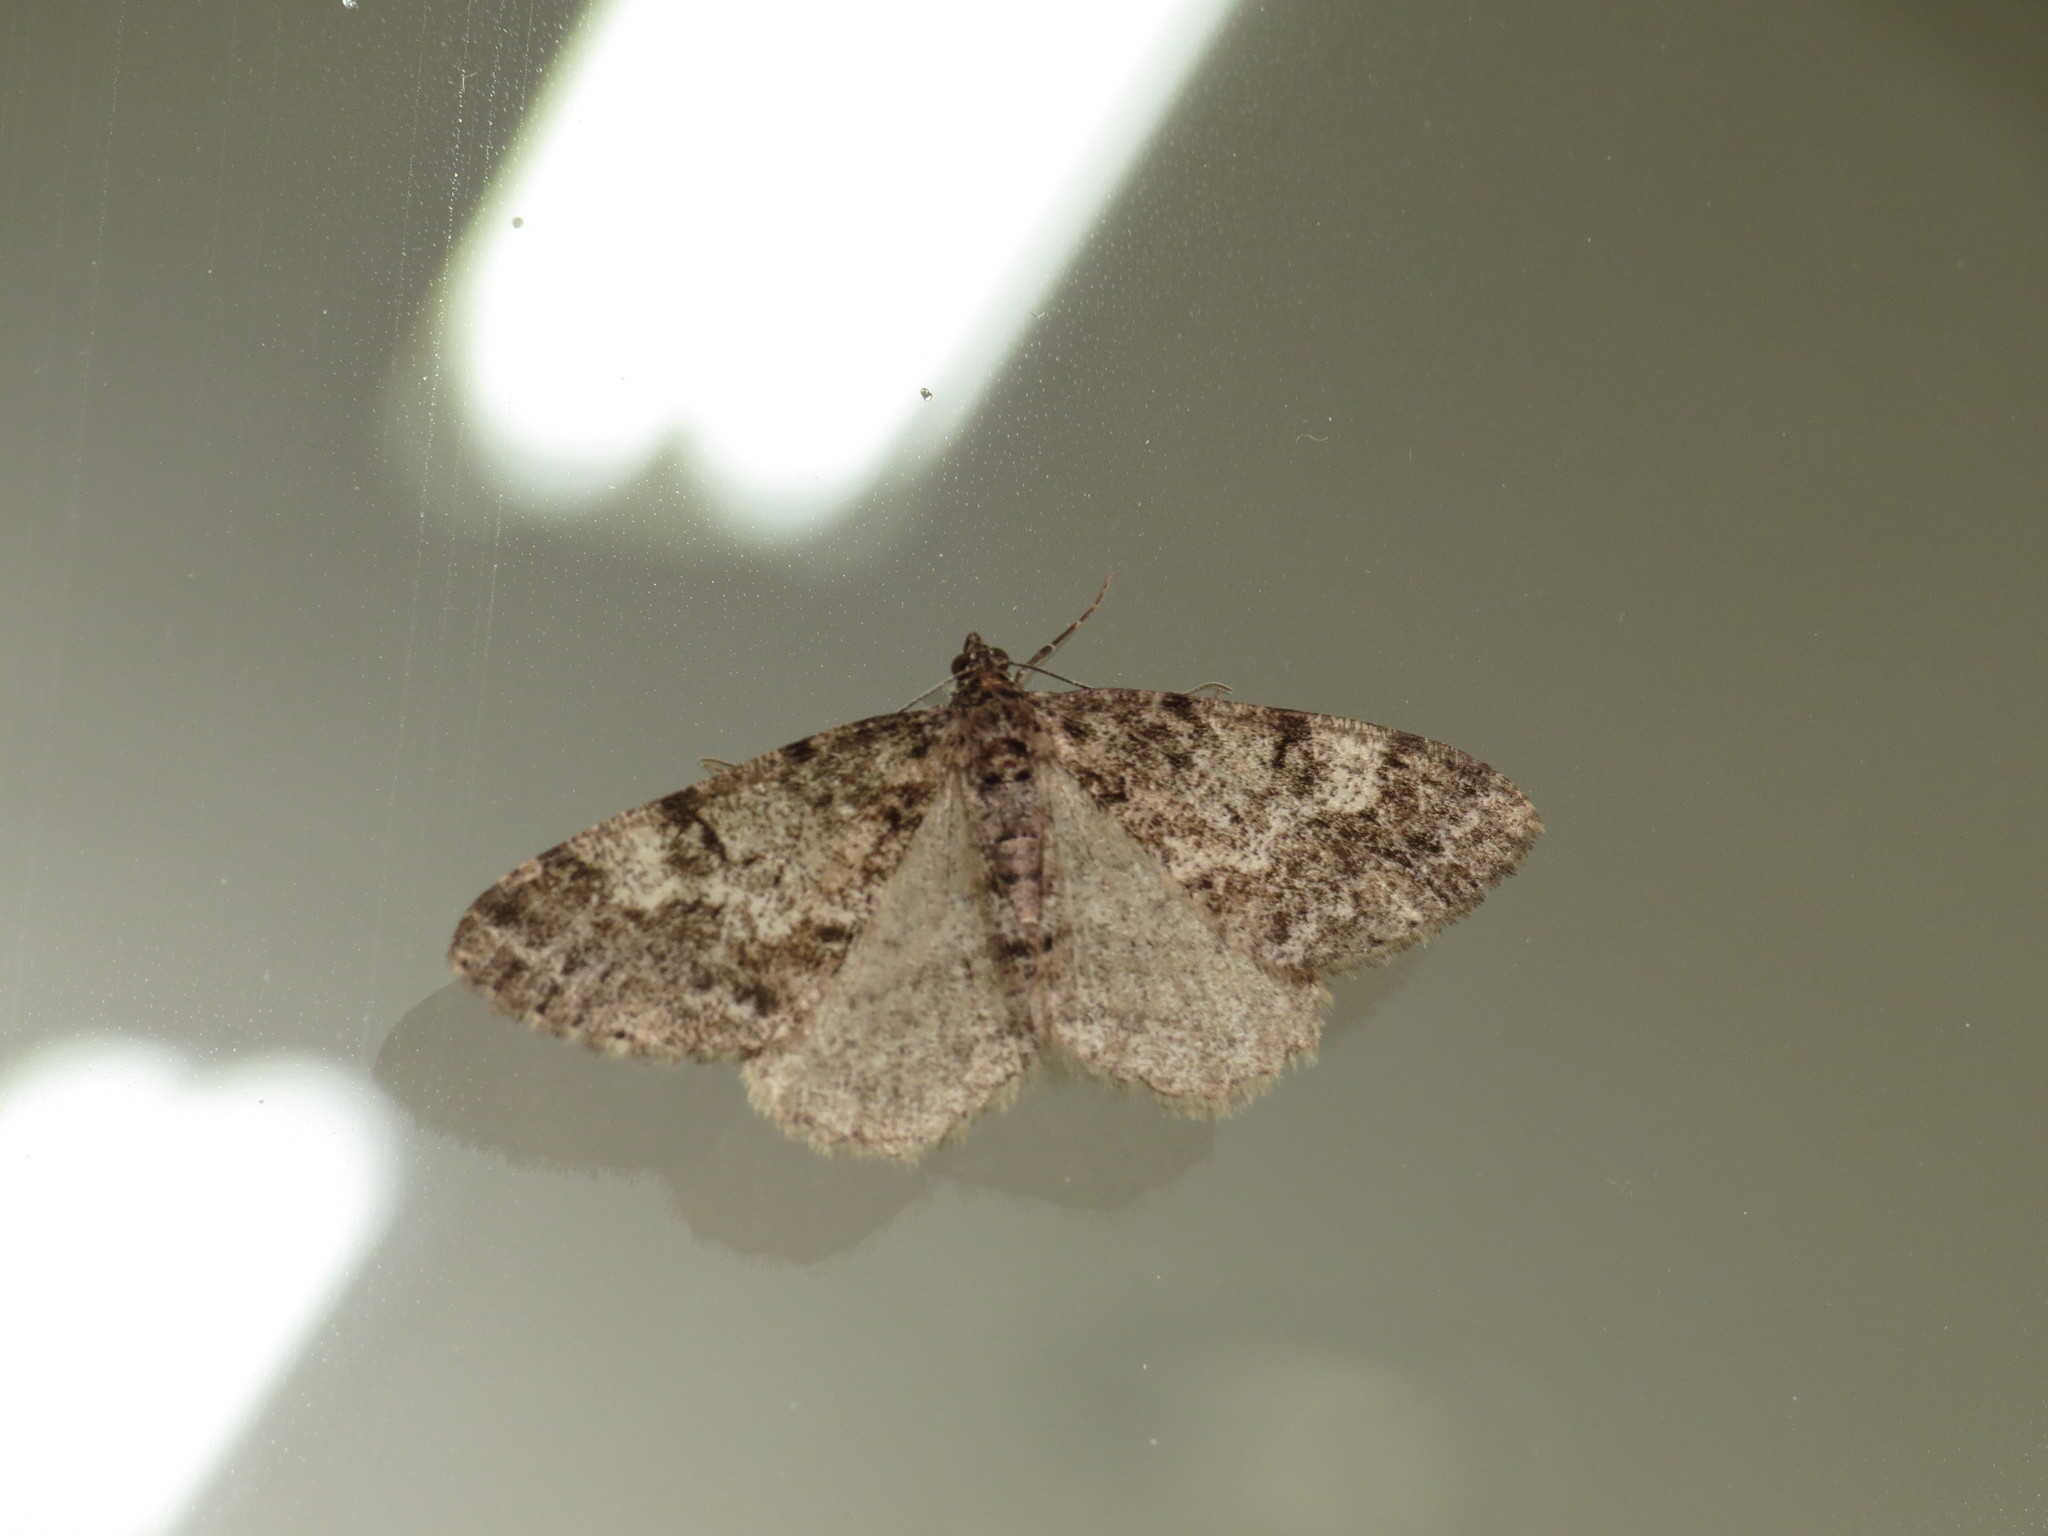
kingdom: Animalia
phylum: Arthropoda
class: Insecta
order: Lepidoptera
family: Geometridae
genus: Alcis
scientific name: Alcis angulifera
